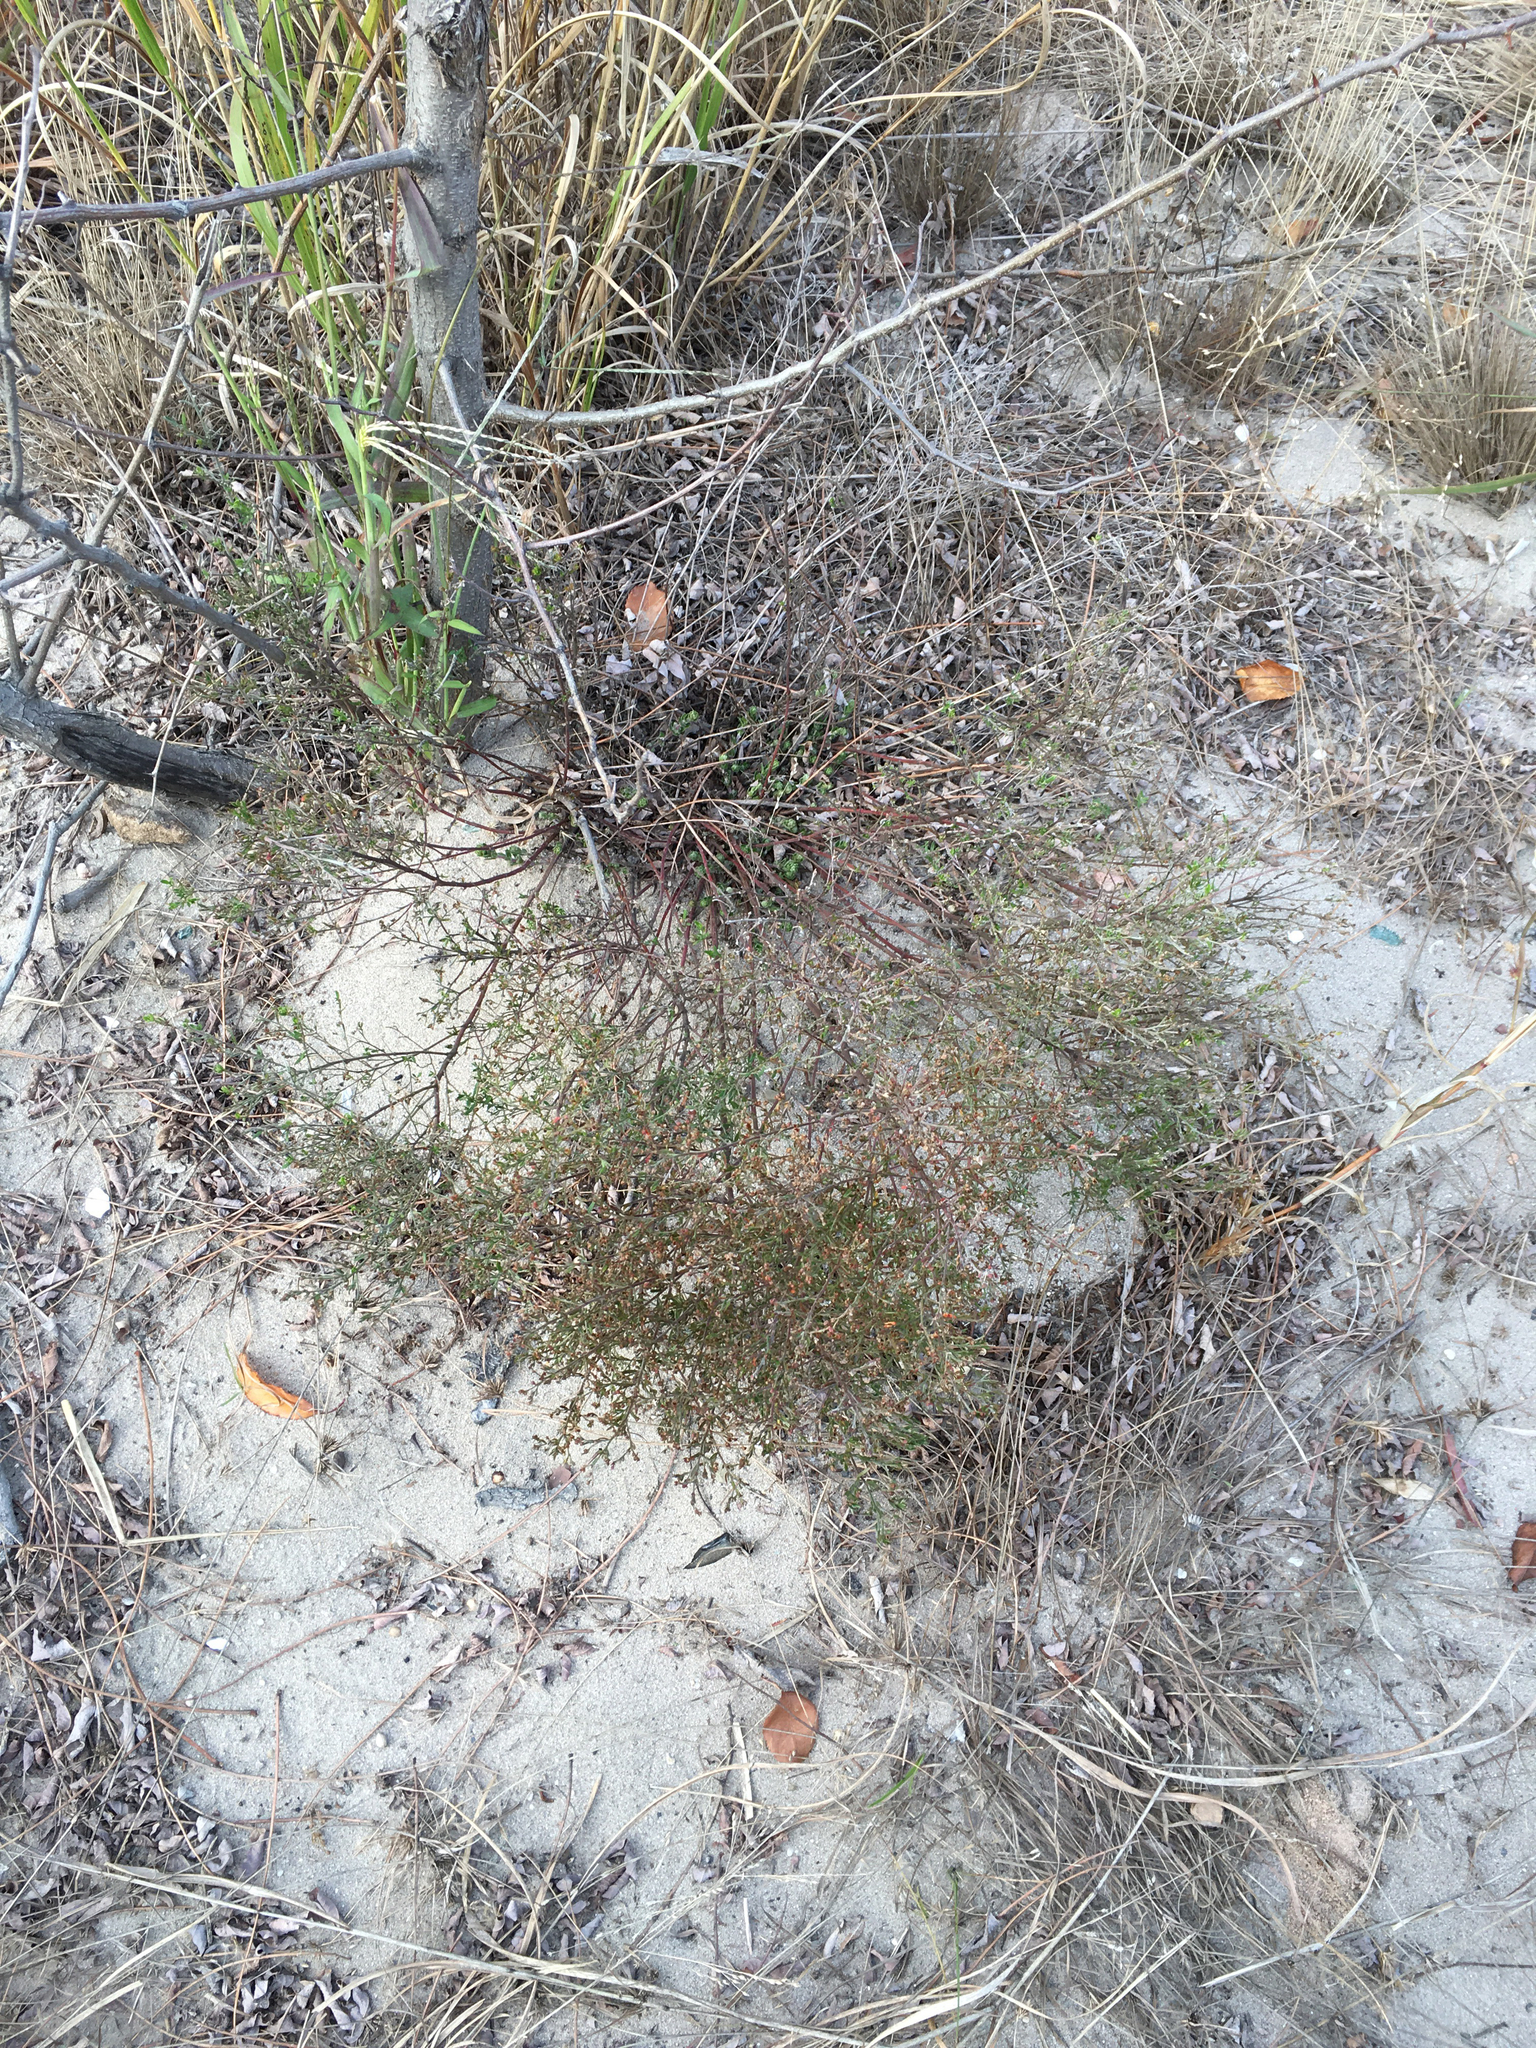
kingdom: Plantae
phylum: Tracheophyta
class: Magnoliopsida
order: Malvales
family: Cistaceae
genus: Lechea
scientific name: Lechea maritima
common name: Beach pinweed
